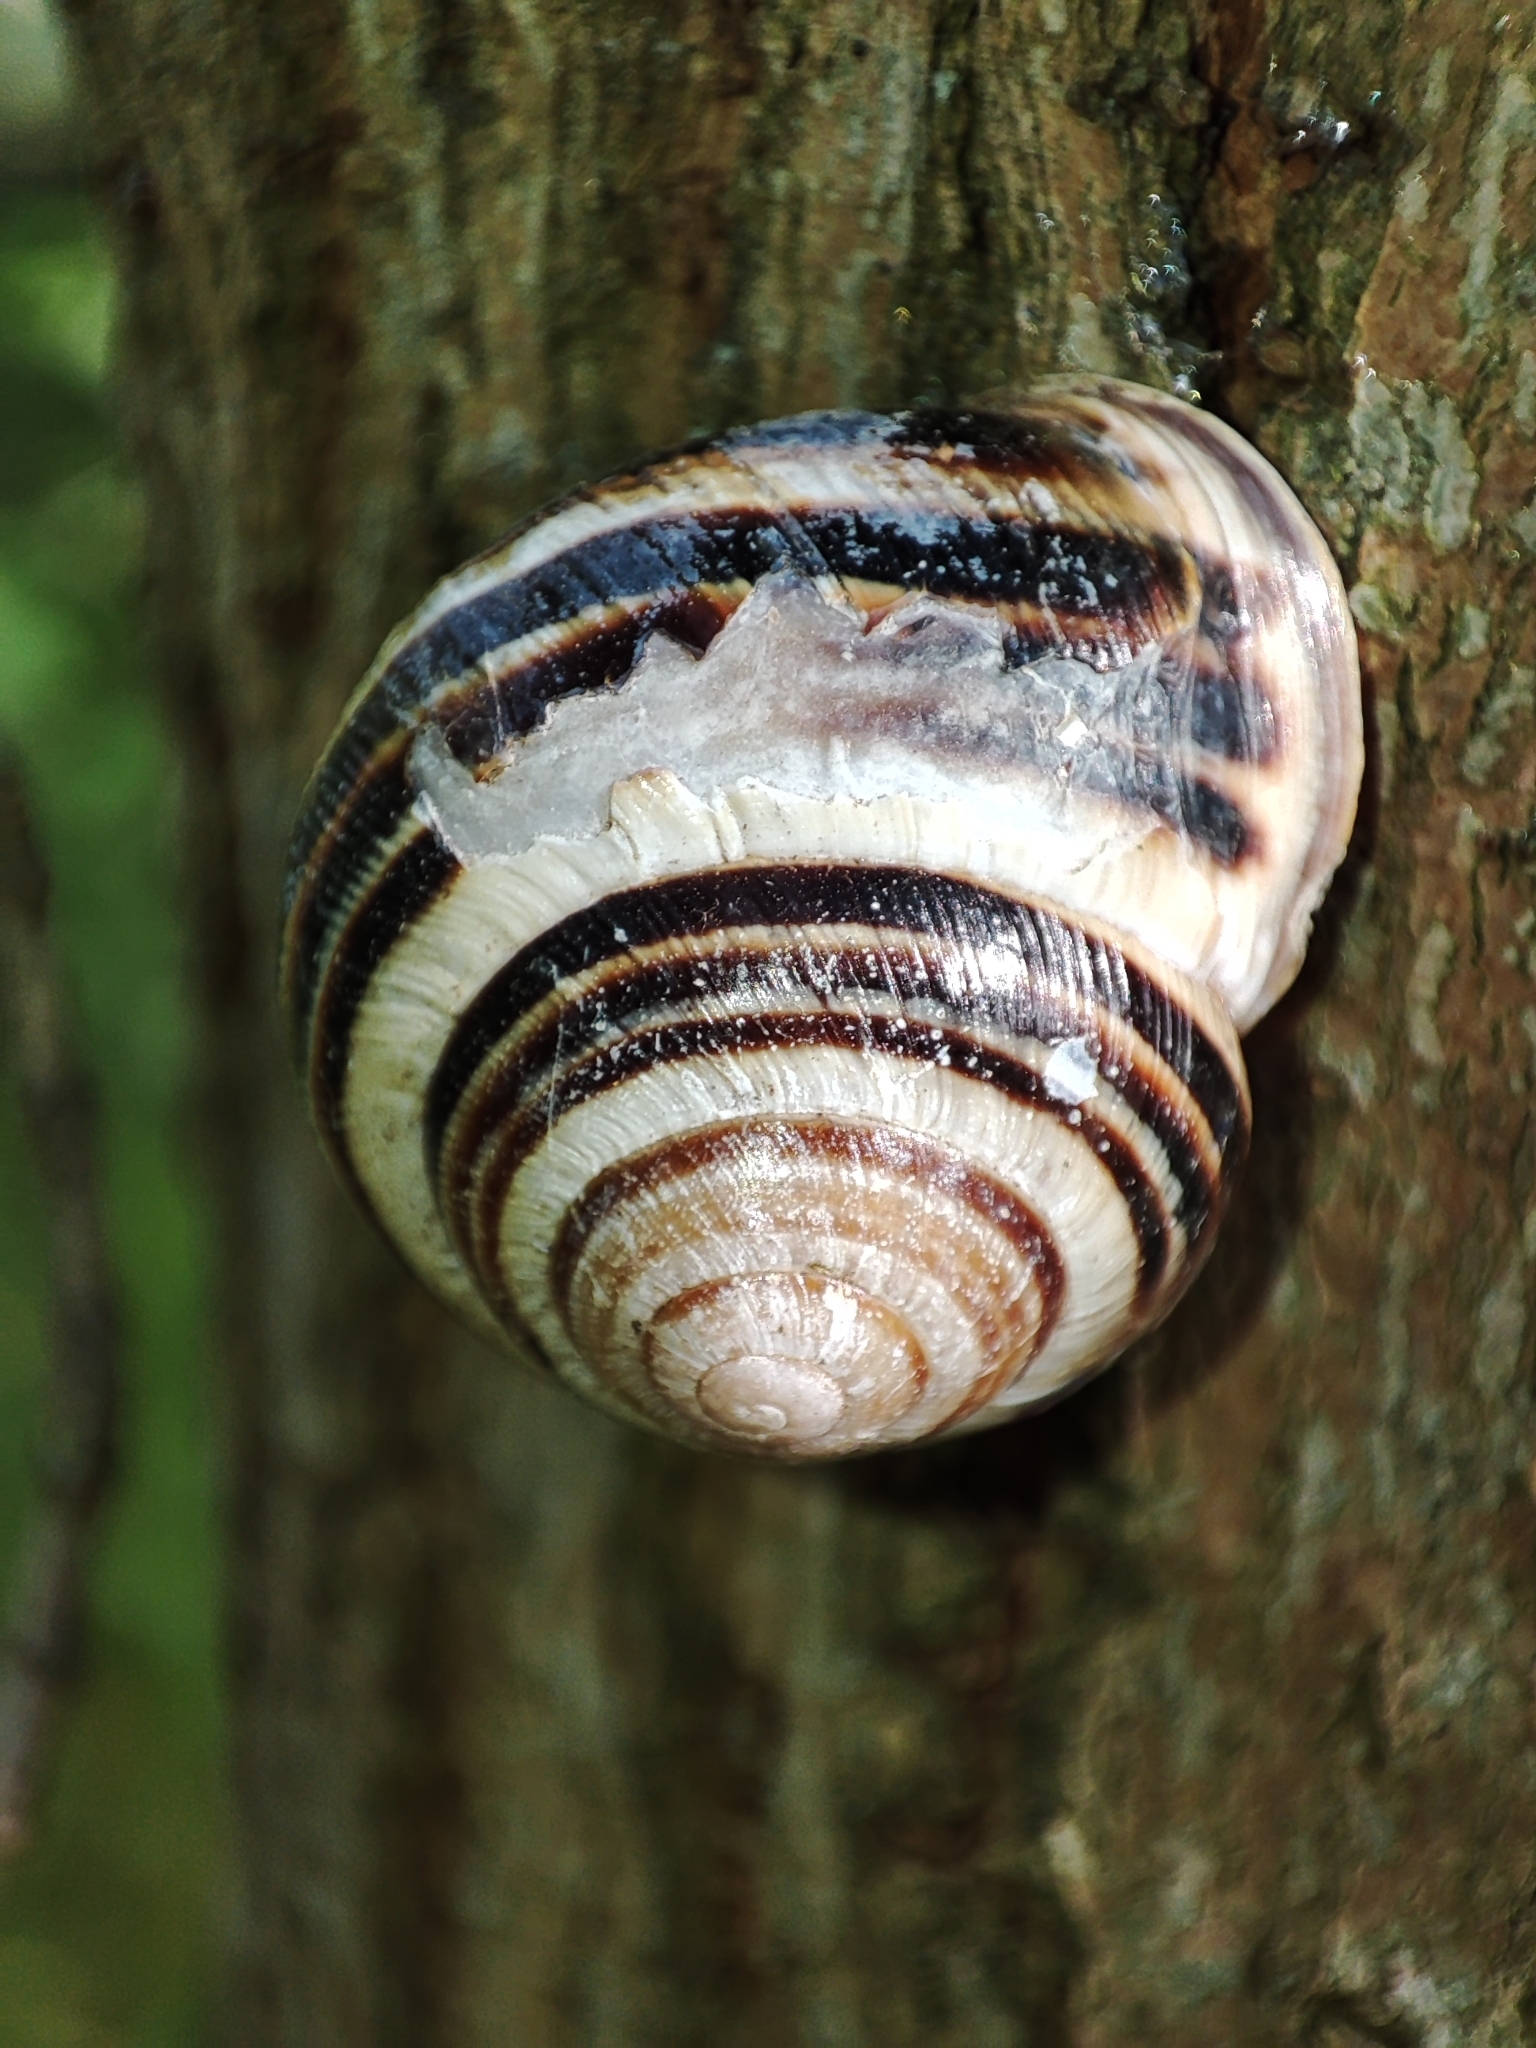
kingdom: Animalia
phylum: Mollusca
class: Gastropoda
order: Stylommatophora
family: Helicidae
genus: Caucasotachea
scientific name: Caucasotachea vindobonensis
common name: European helicid land snail
